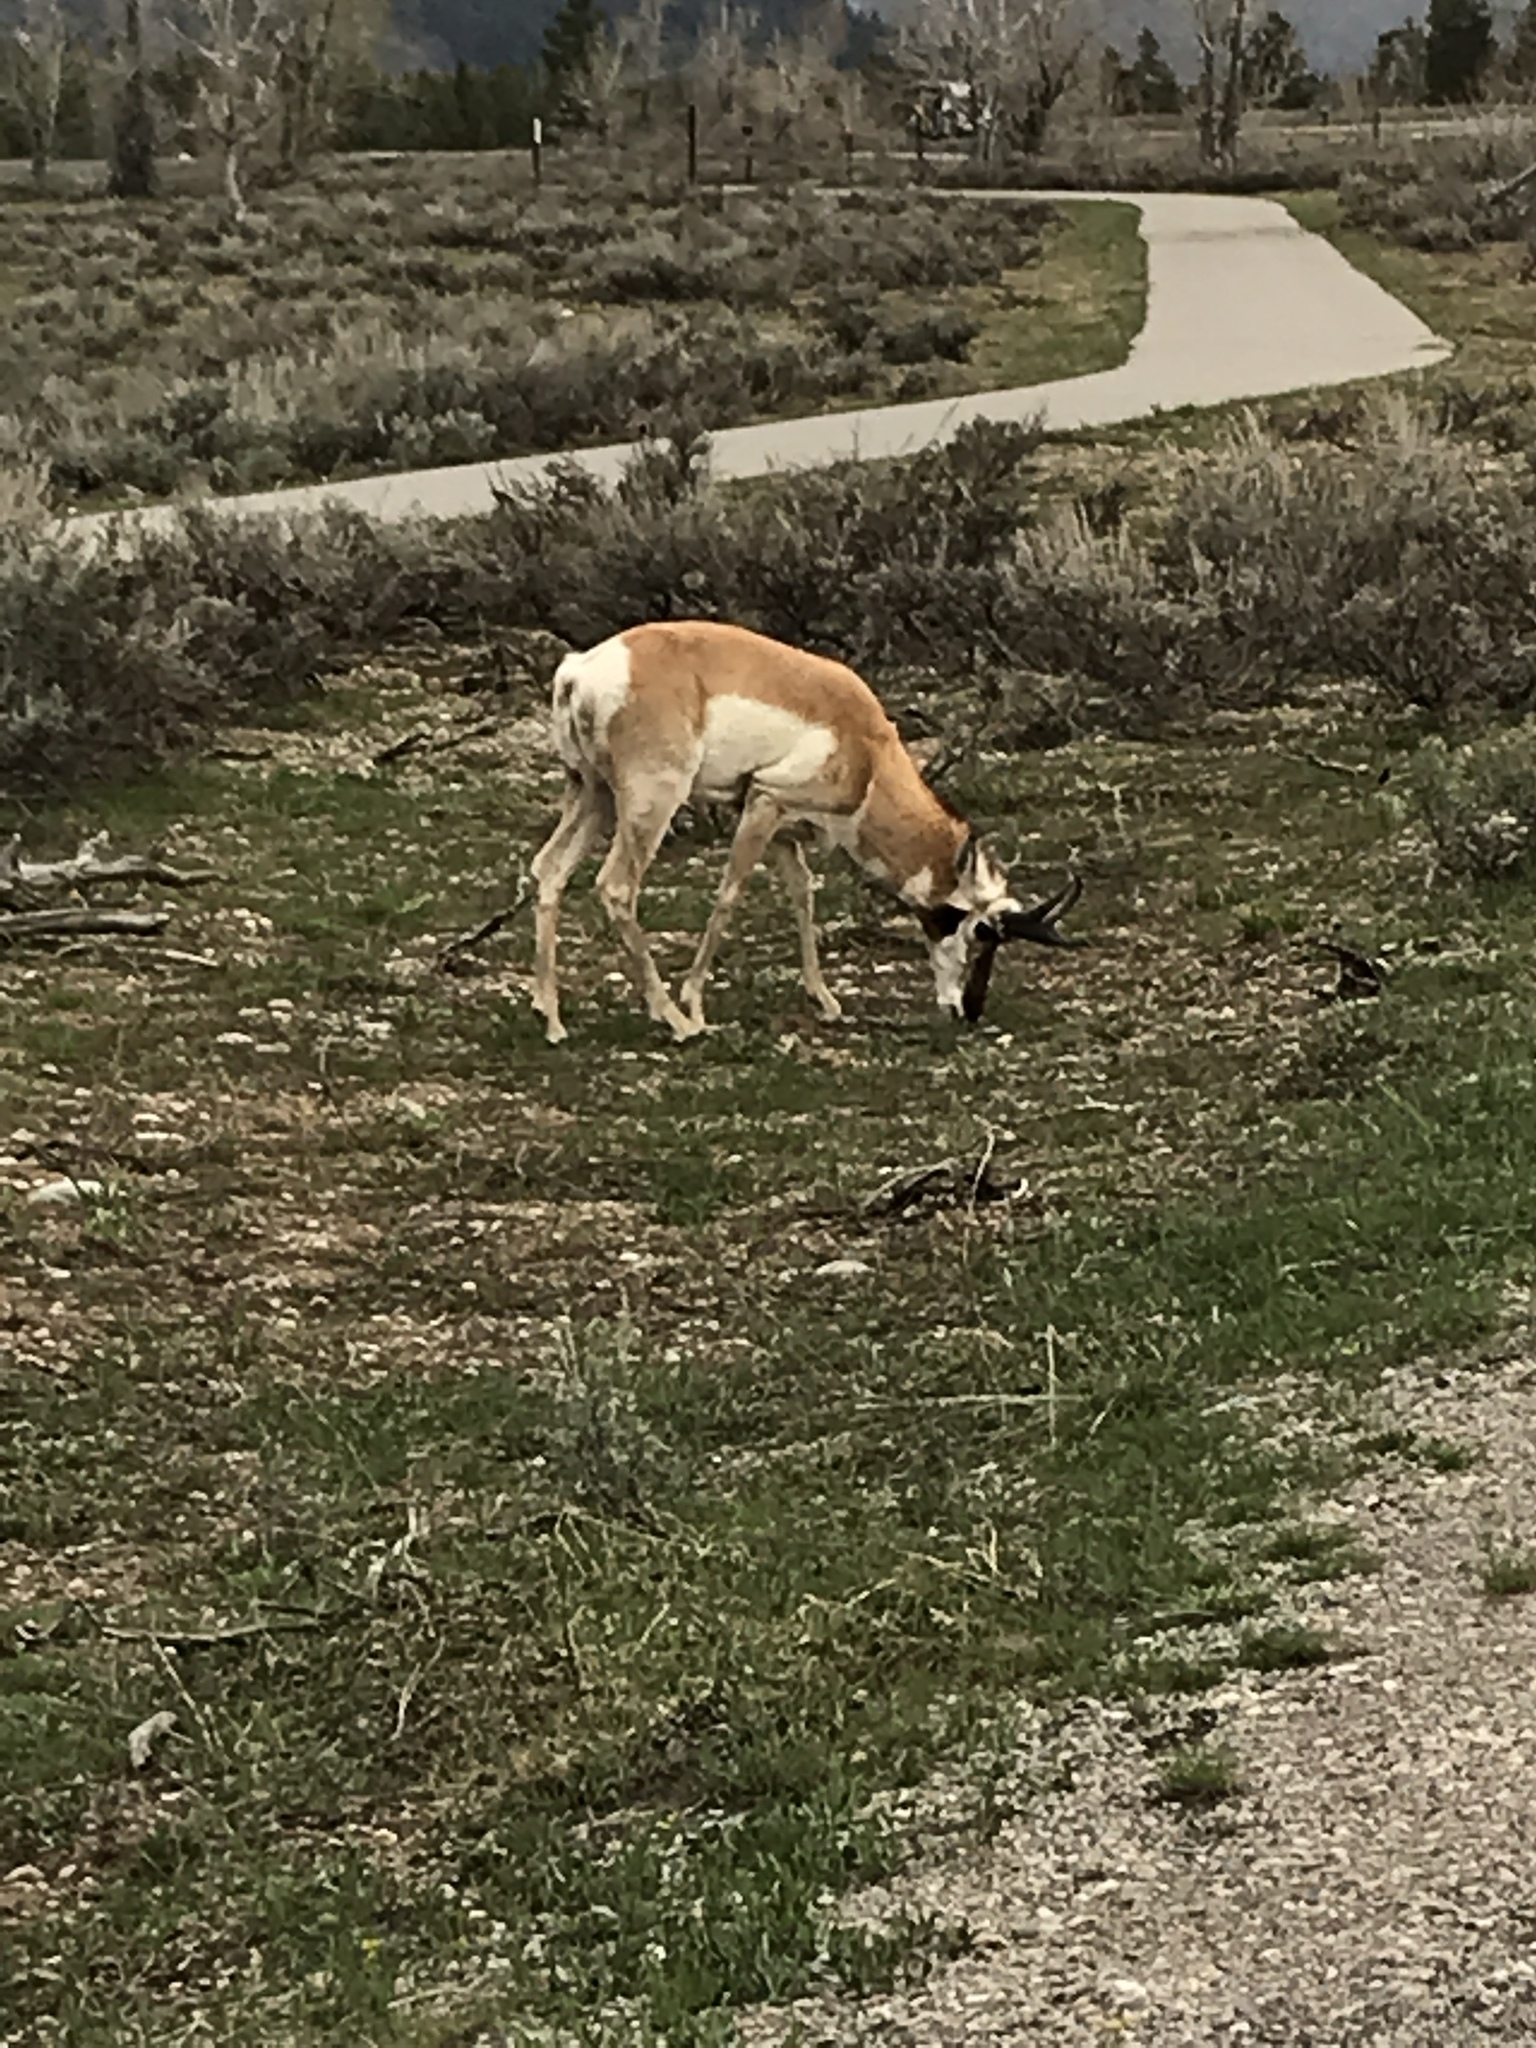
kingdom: Animalia
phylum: Chordata
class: Mammalia
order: Artiodactyla
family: Antilocapridae
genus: Antilocapra
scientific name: Antilocapra americana
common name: Pronghorn
